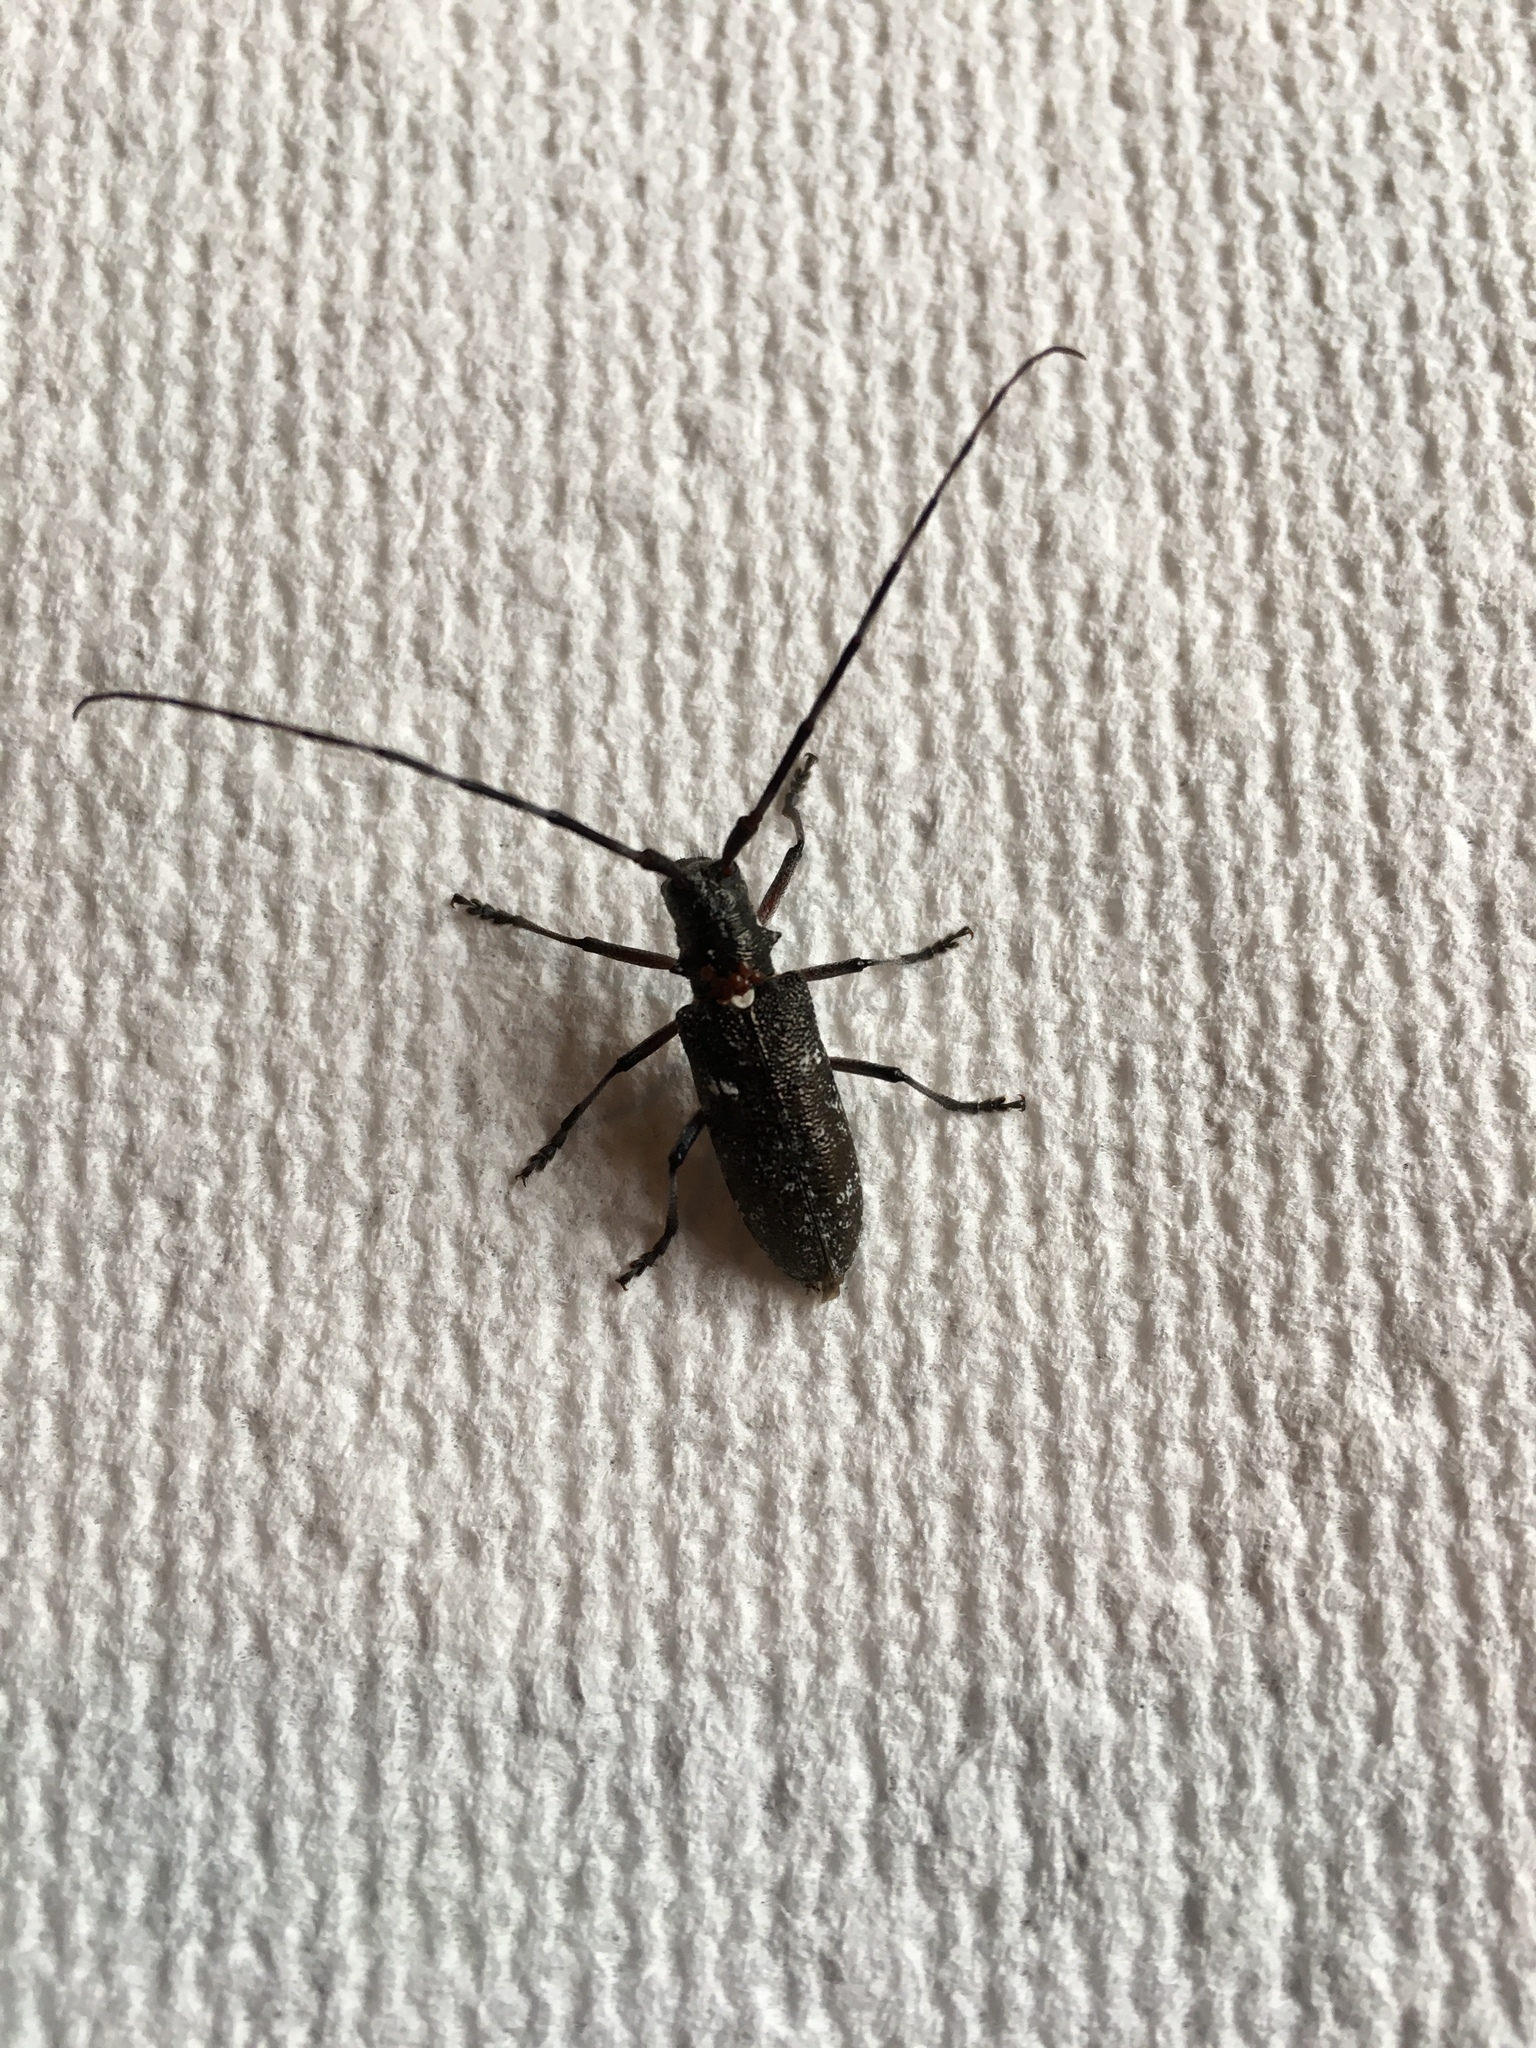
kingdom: Animalia
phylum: Arthropoda
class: Insecta
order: Coleoptera
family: Cerambycidae
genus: Monochamus
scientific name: Monochamus scutellatus
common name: White-spotted sawyer beetle
